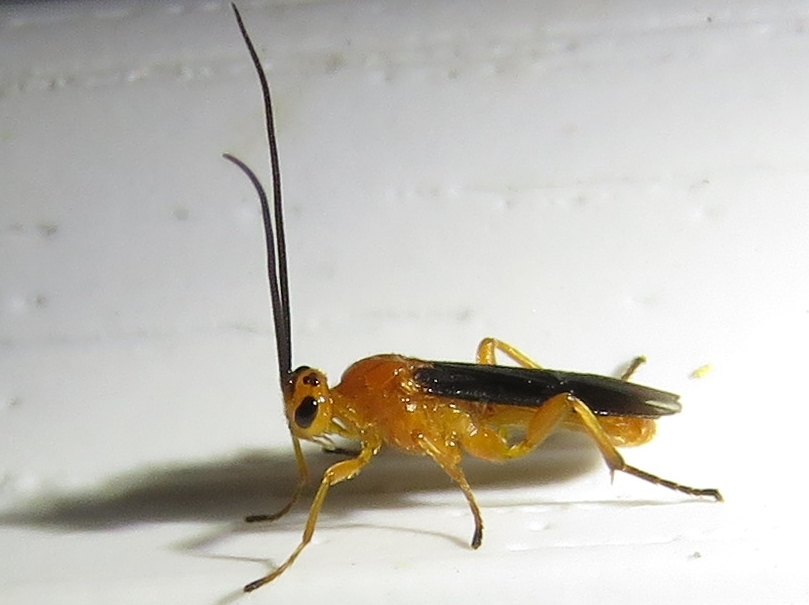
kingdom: Animalia
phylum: Arthropoda
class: Insecta
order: Hymenoptera
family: Braconidae
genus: Aleiodes
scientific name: Aleiodes politiceps
